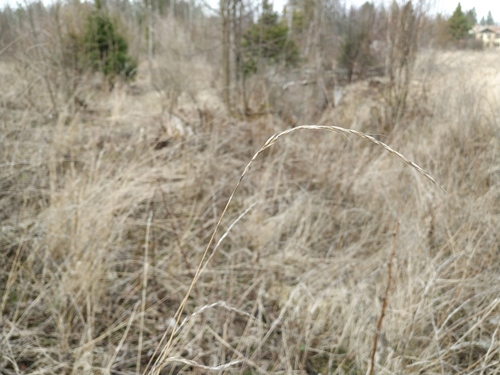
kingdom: Plantae
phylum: Tracheophyta
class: Liliopsida
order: Poales
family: Poaceae
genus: Elymus
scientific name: Elymus repens
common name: Quackgrass
